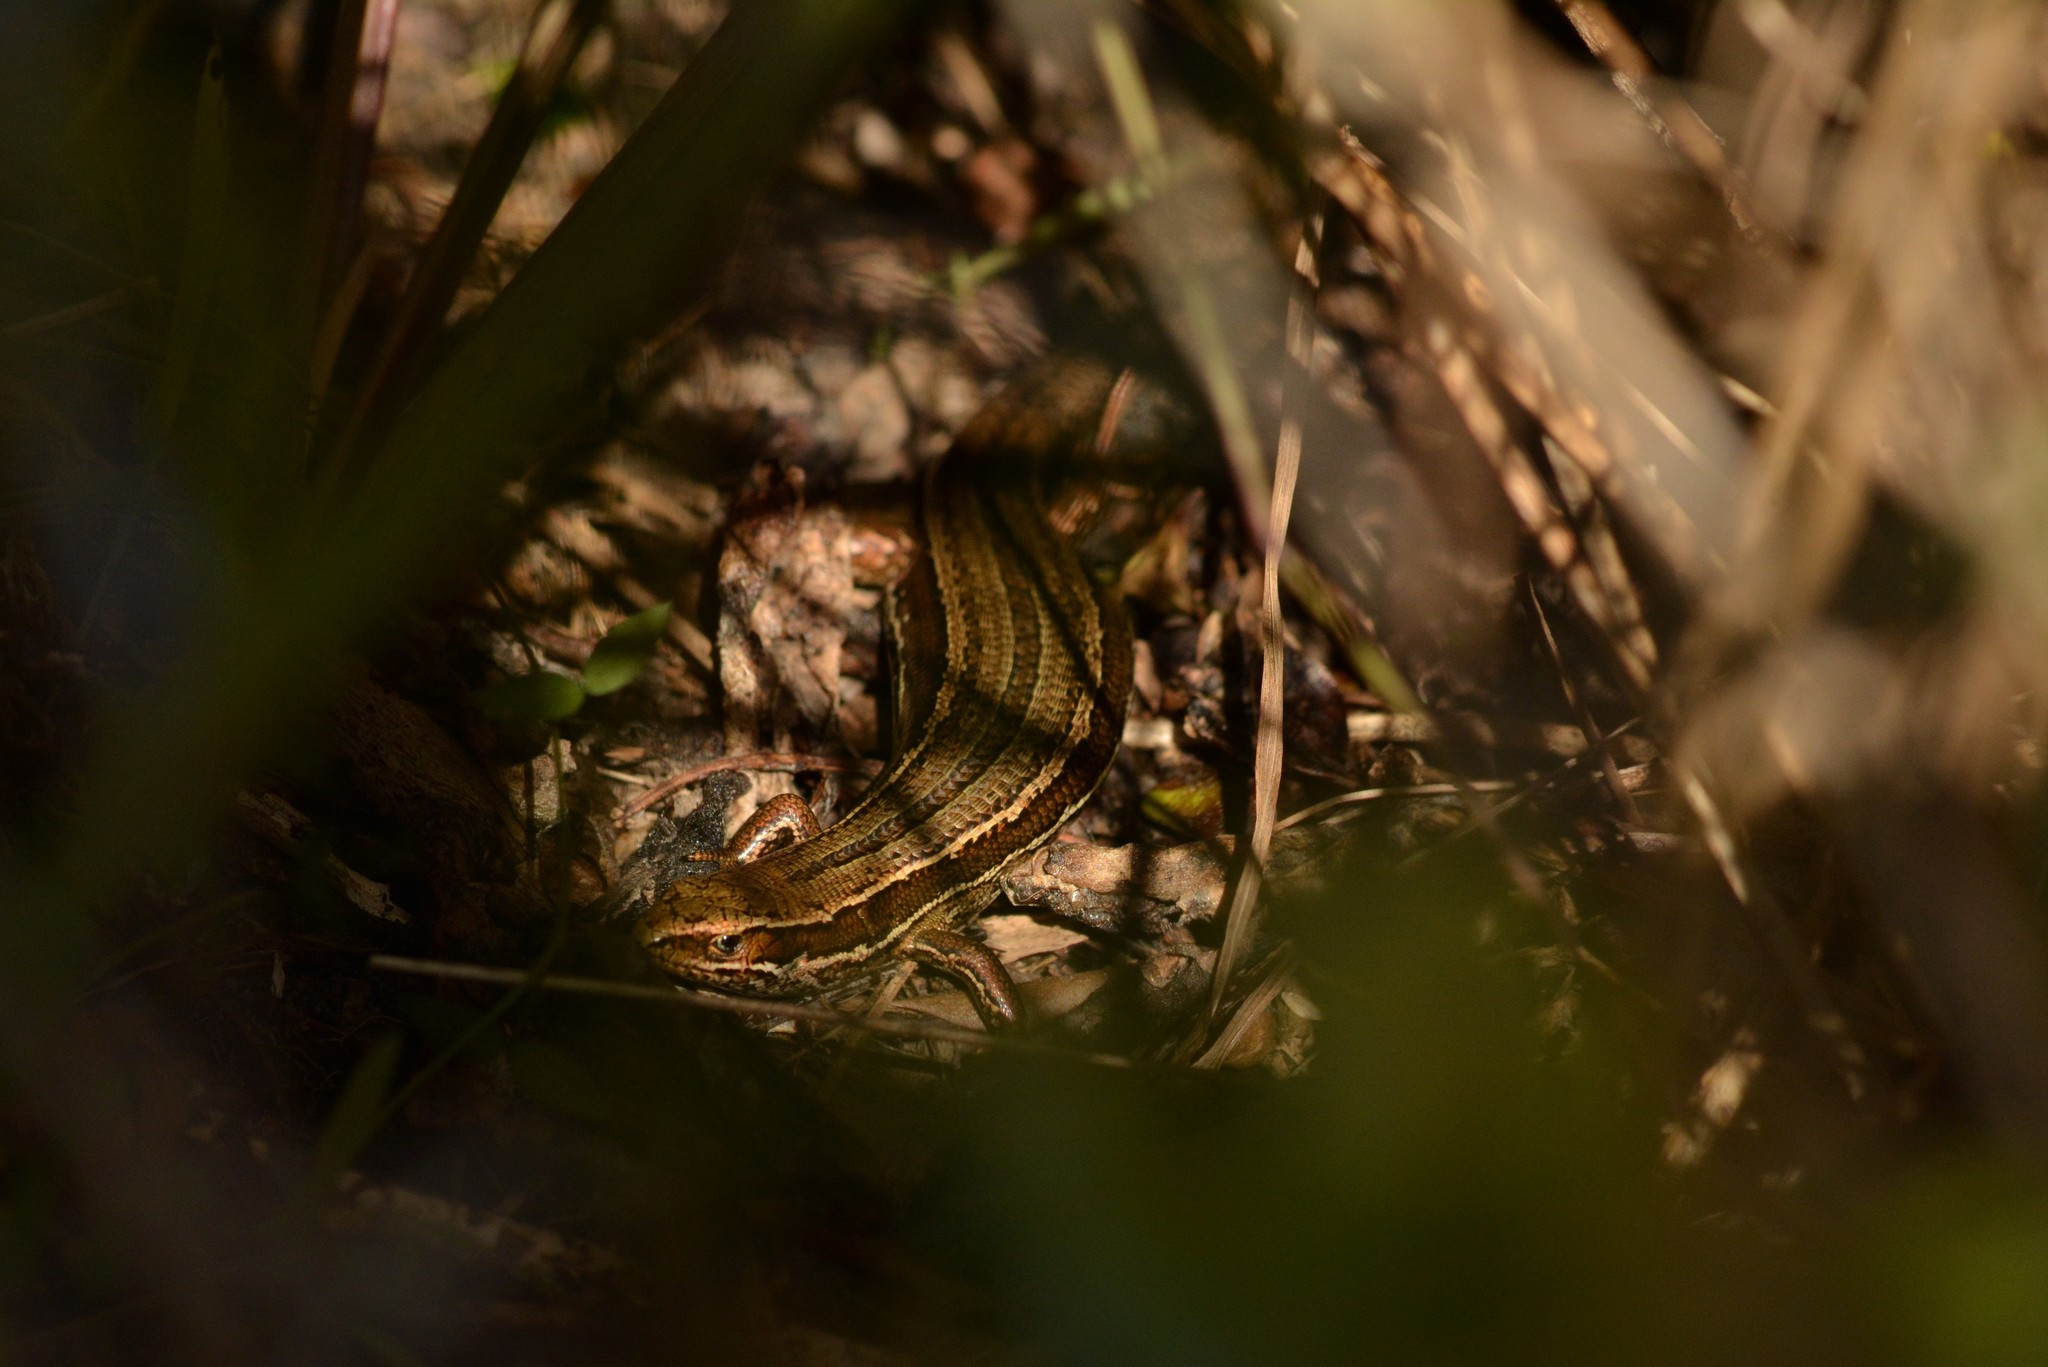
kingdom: Animalia
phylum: Chordata
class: Squamata
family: Scincidae
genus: Oligosoma
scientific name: Oligosoma polychroma
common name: Common new zealand skink
